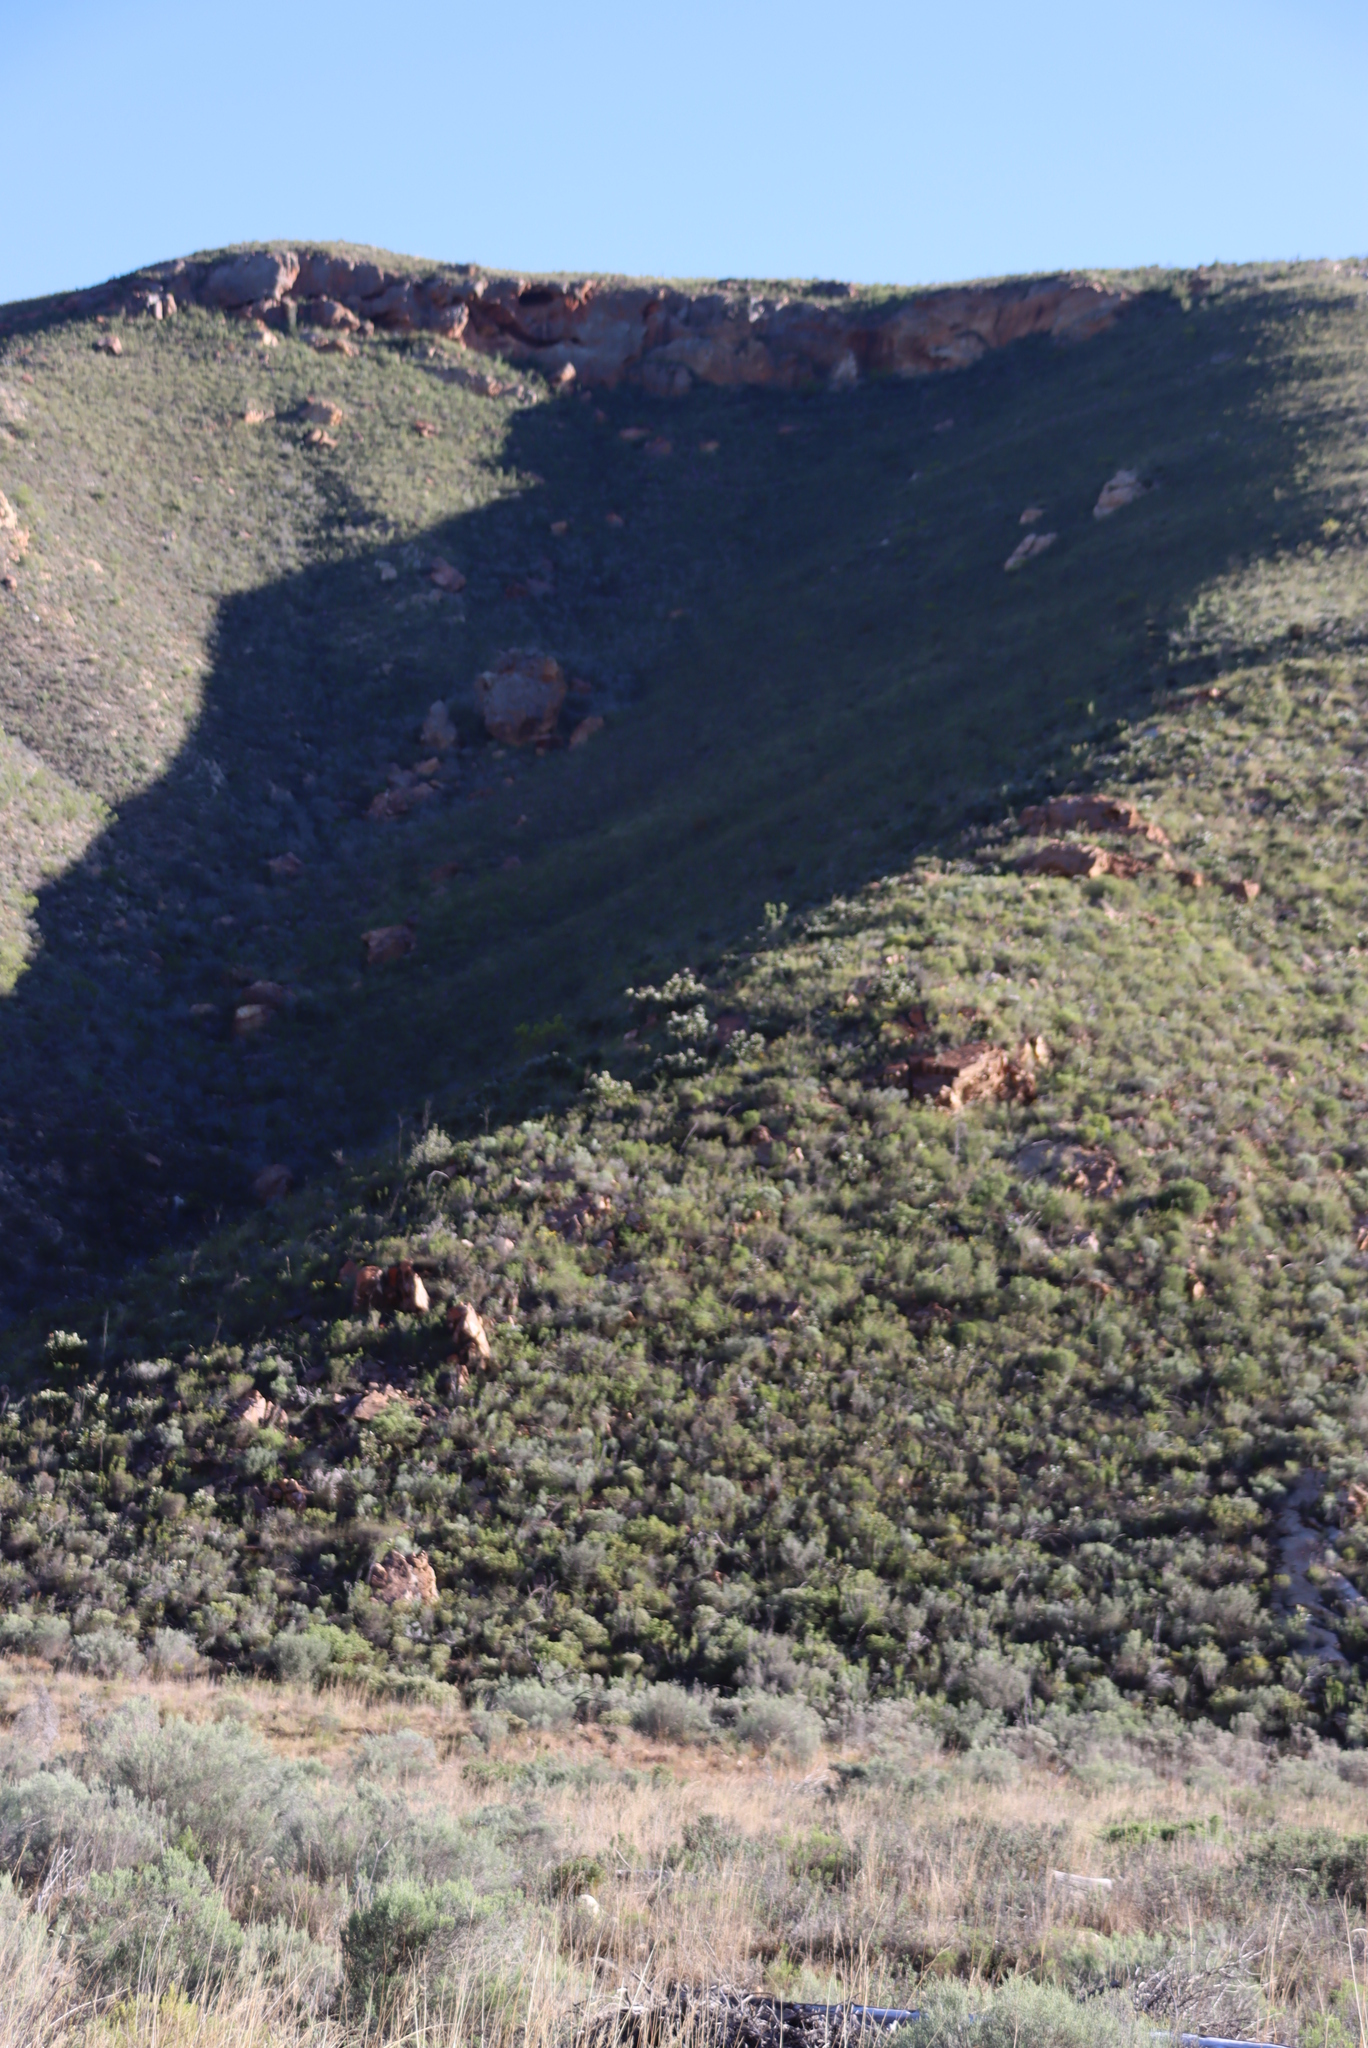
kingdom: Plantae
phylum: Tracheophyta
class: Magnoliopsida
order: Proteales
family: Proteaceae
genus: Protea
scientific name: Protea lorifolia
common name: Strap-leaved protea
